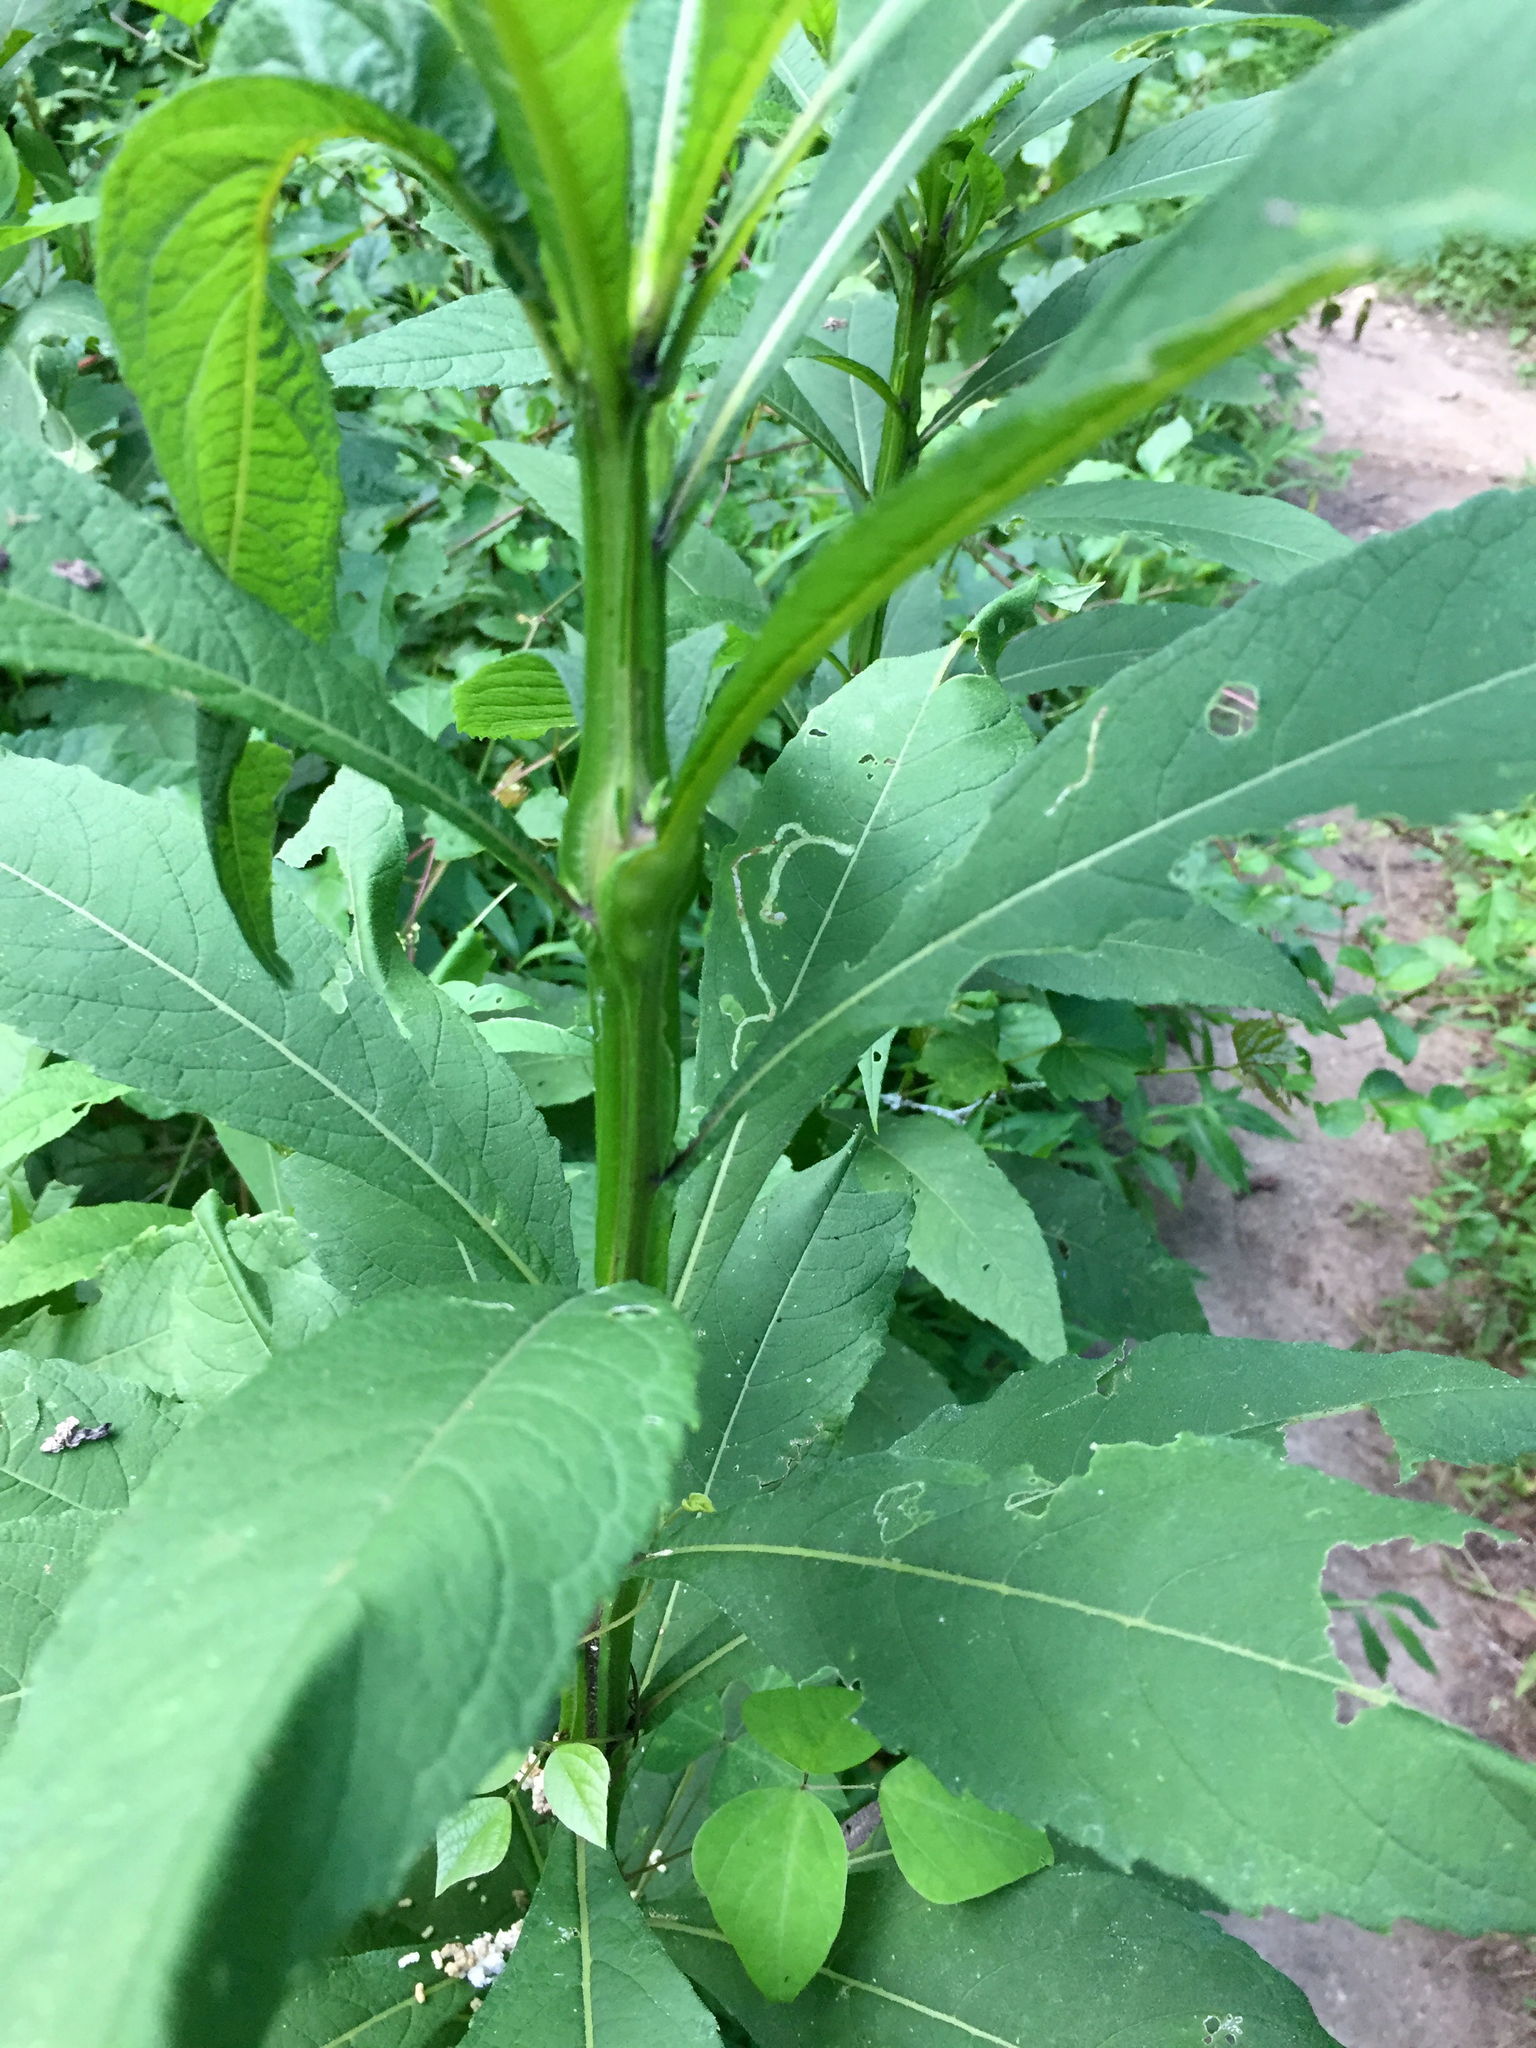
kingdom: Animalia
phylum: Arthropoda
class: Insecta
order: Diptera
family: Cecidomyiidae
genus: Neolasioptera
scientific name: Neolasioptera verbesinae
